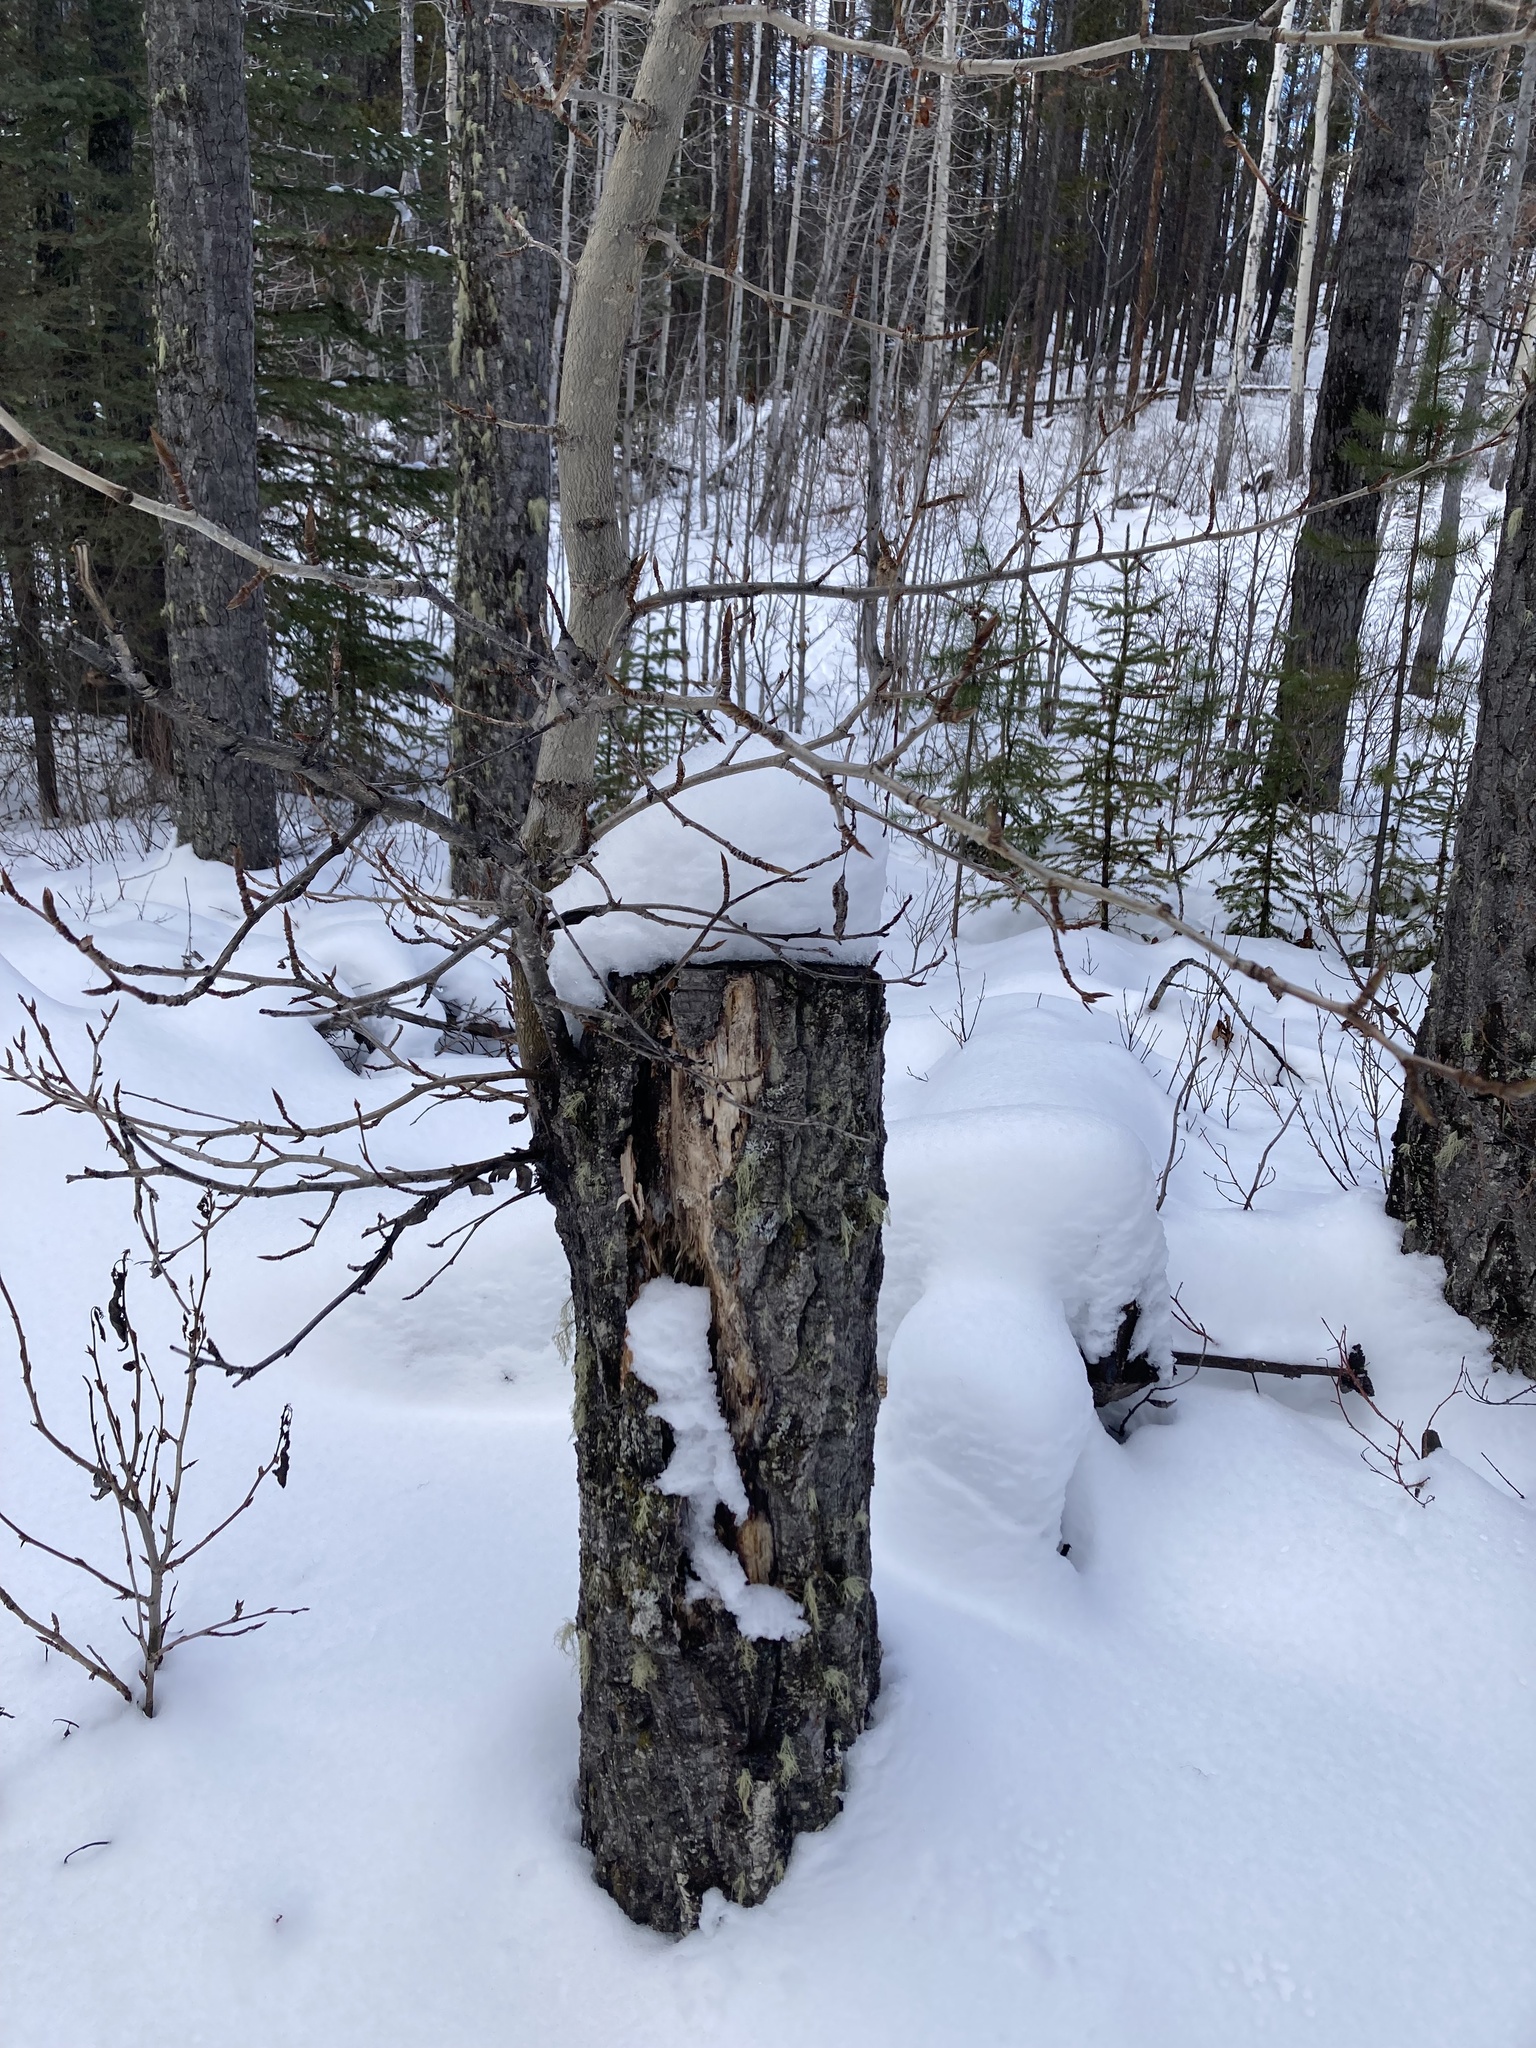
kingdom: Plantae
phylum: Tracheophyta
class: Magnoliopsida
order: Malpighiales
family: Salicaceae
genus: Populus
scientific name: Populus balsamifera
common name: Balsam poplar
